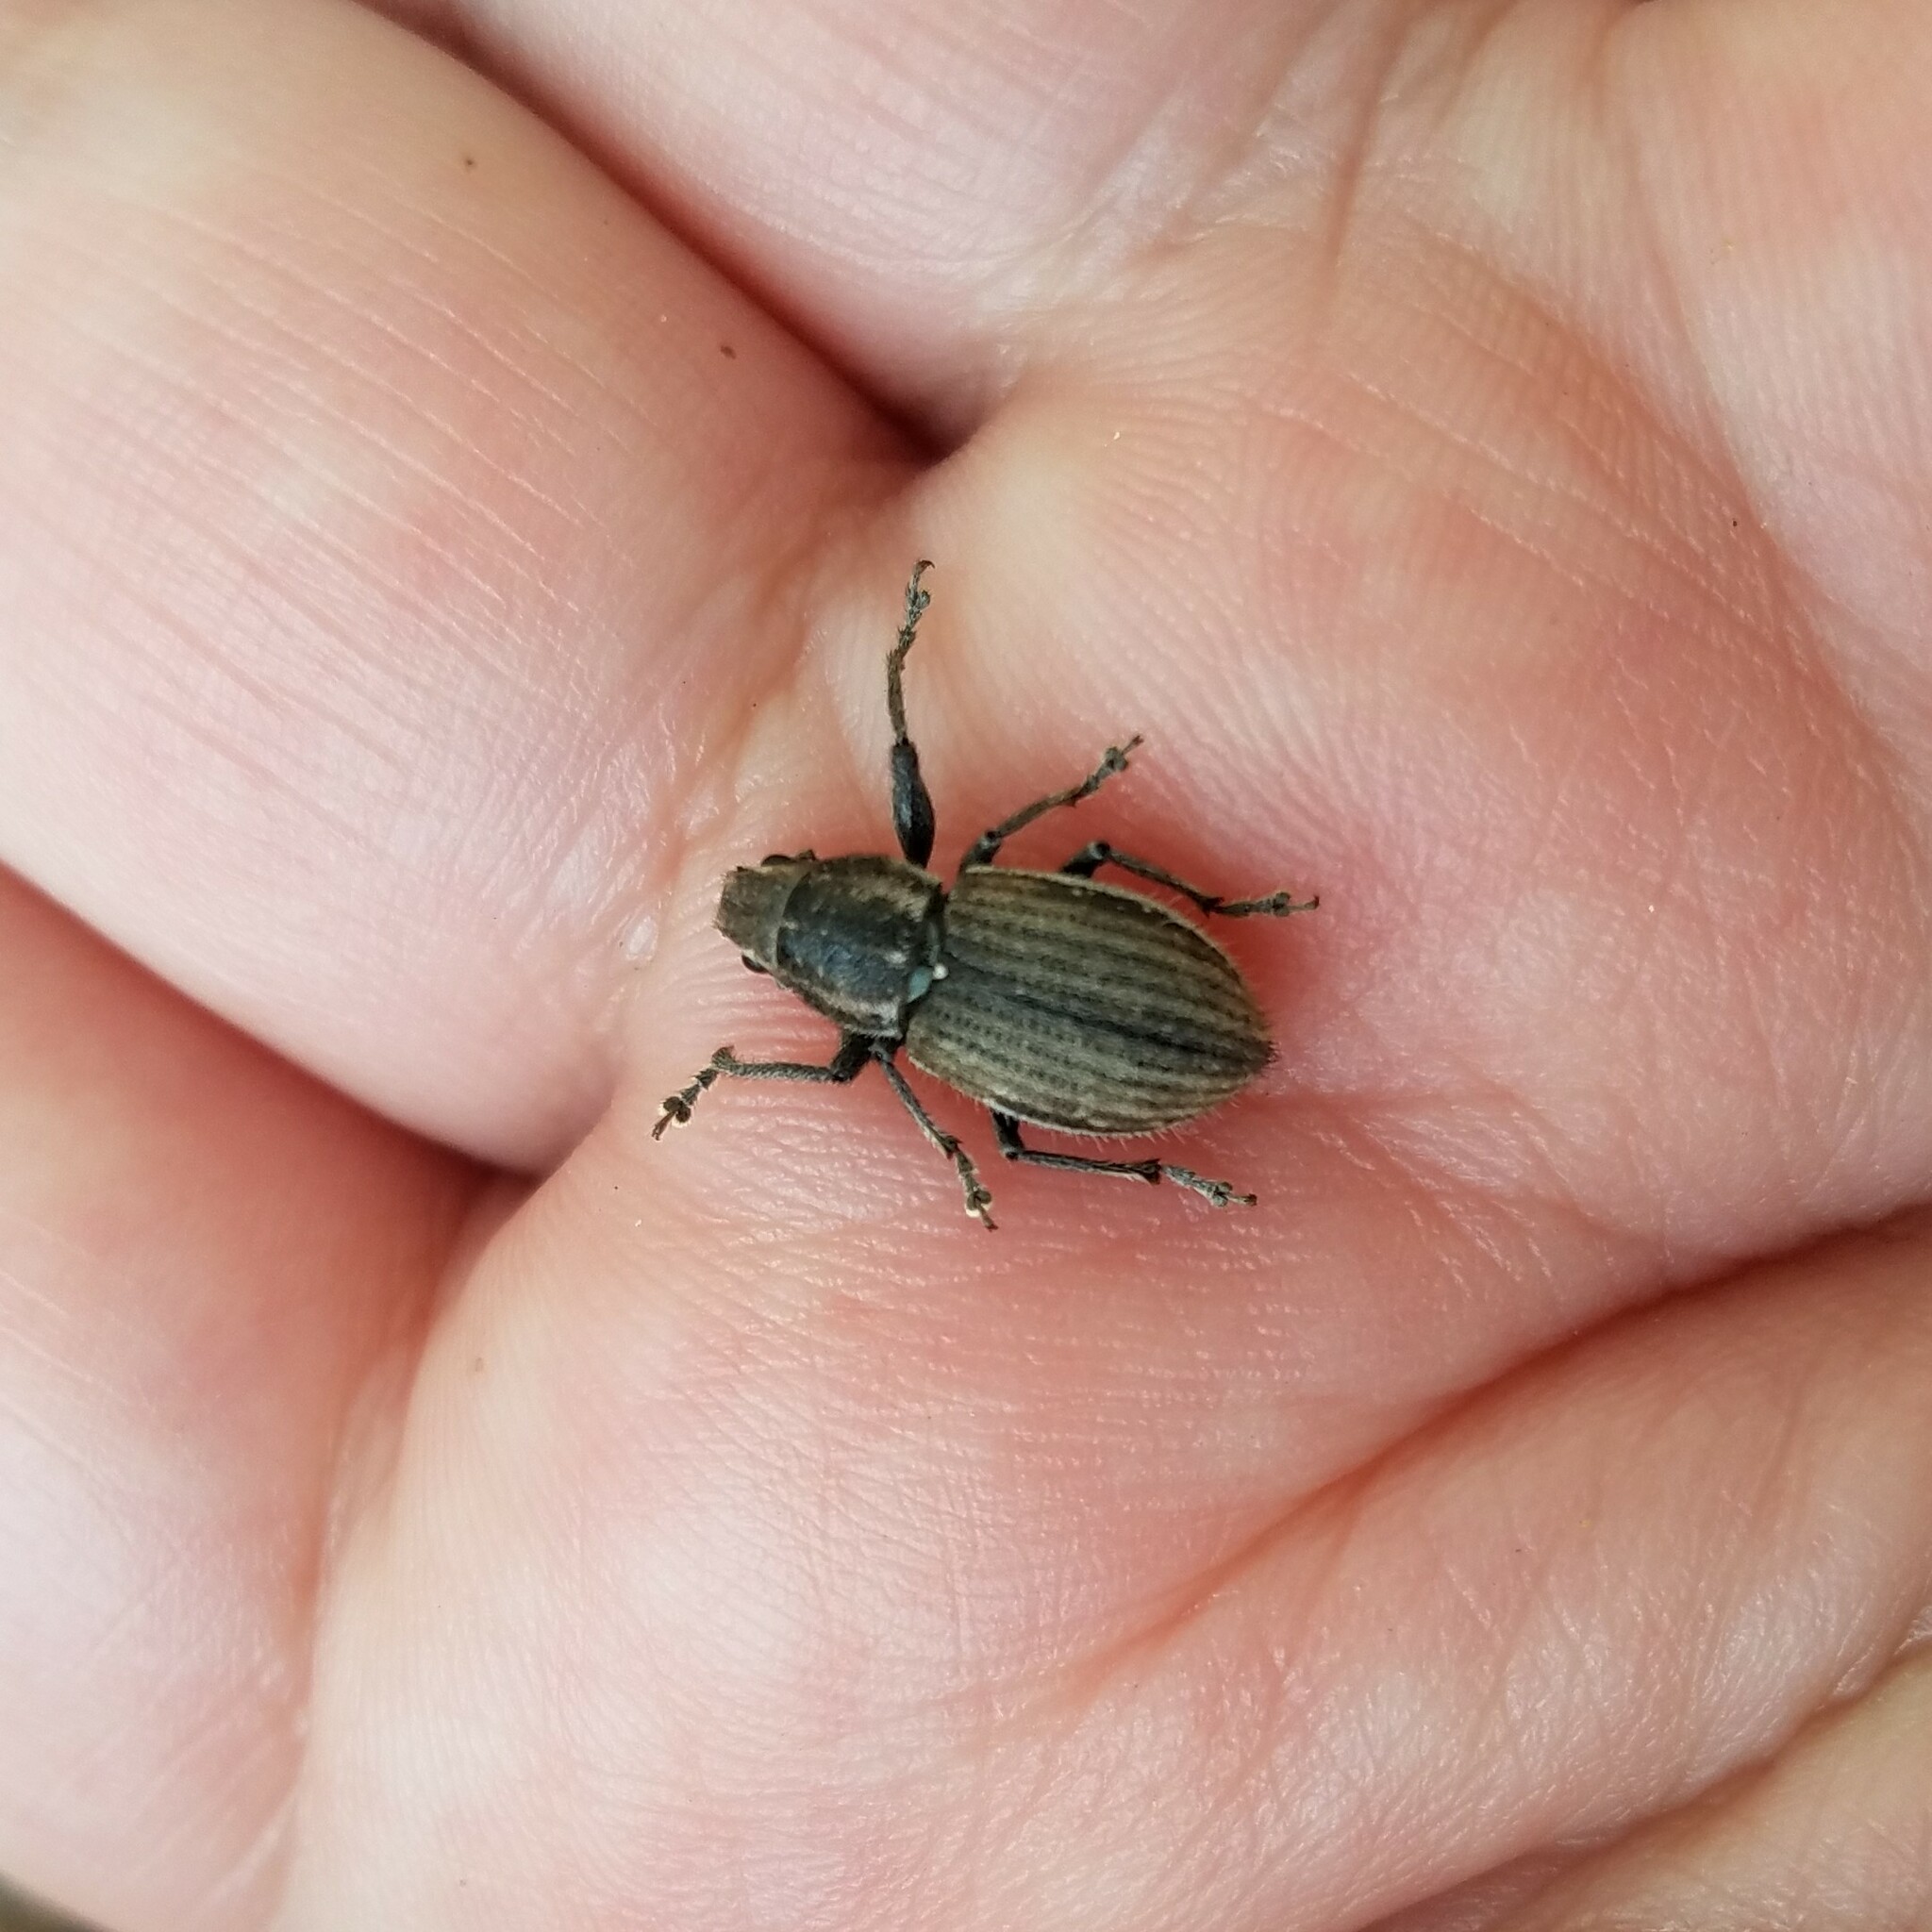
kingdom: Animalia
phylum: Arthropoda
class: Insecta
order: Coleoptera
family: Curculionidae
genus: Naupactus
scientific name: Naupactus leucoloma
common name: Whitefringed beetle
